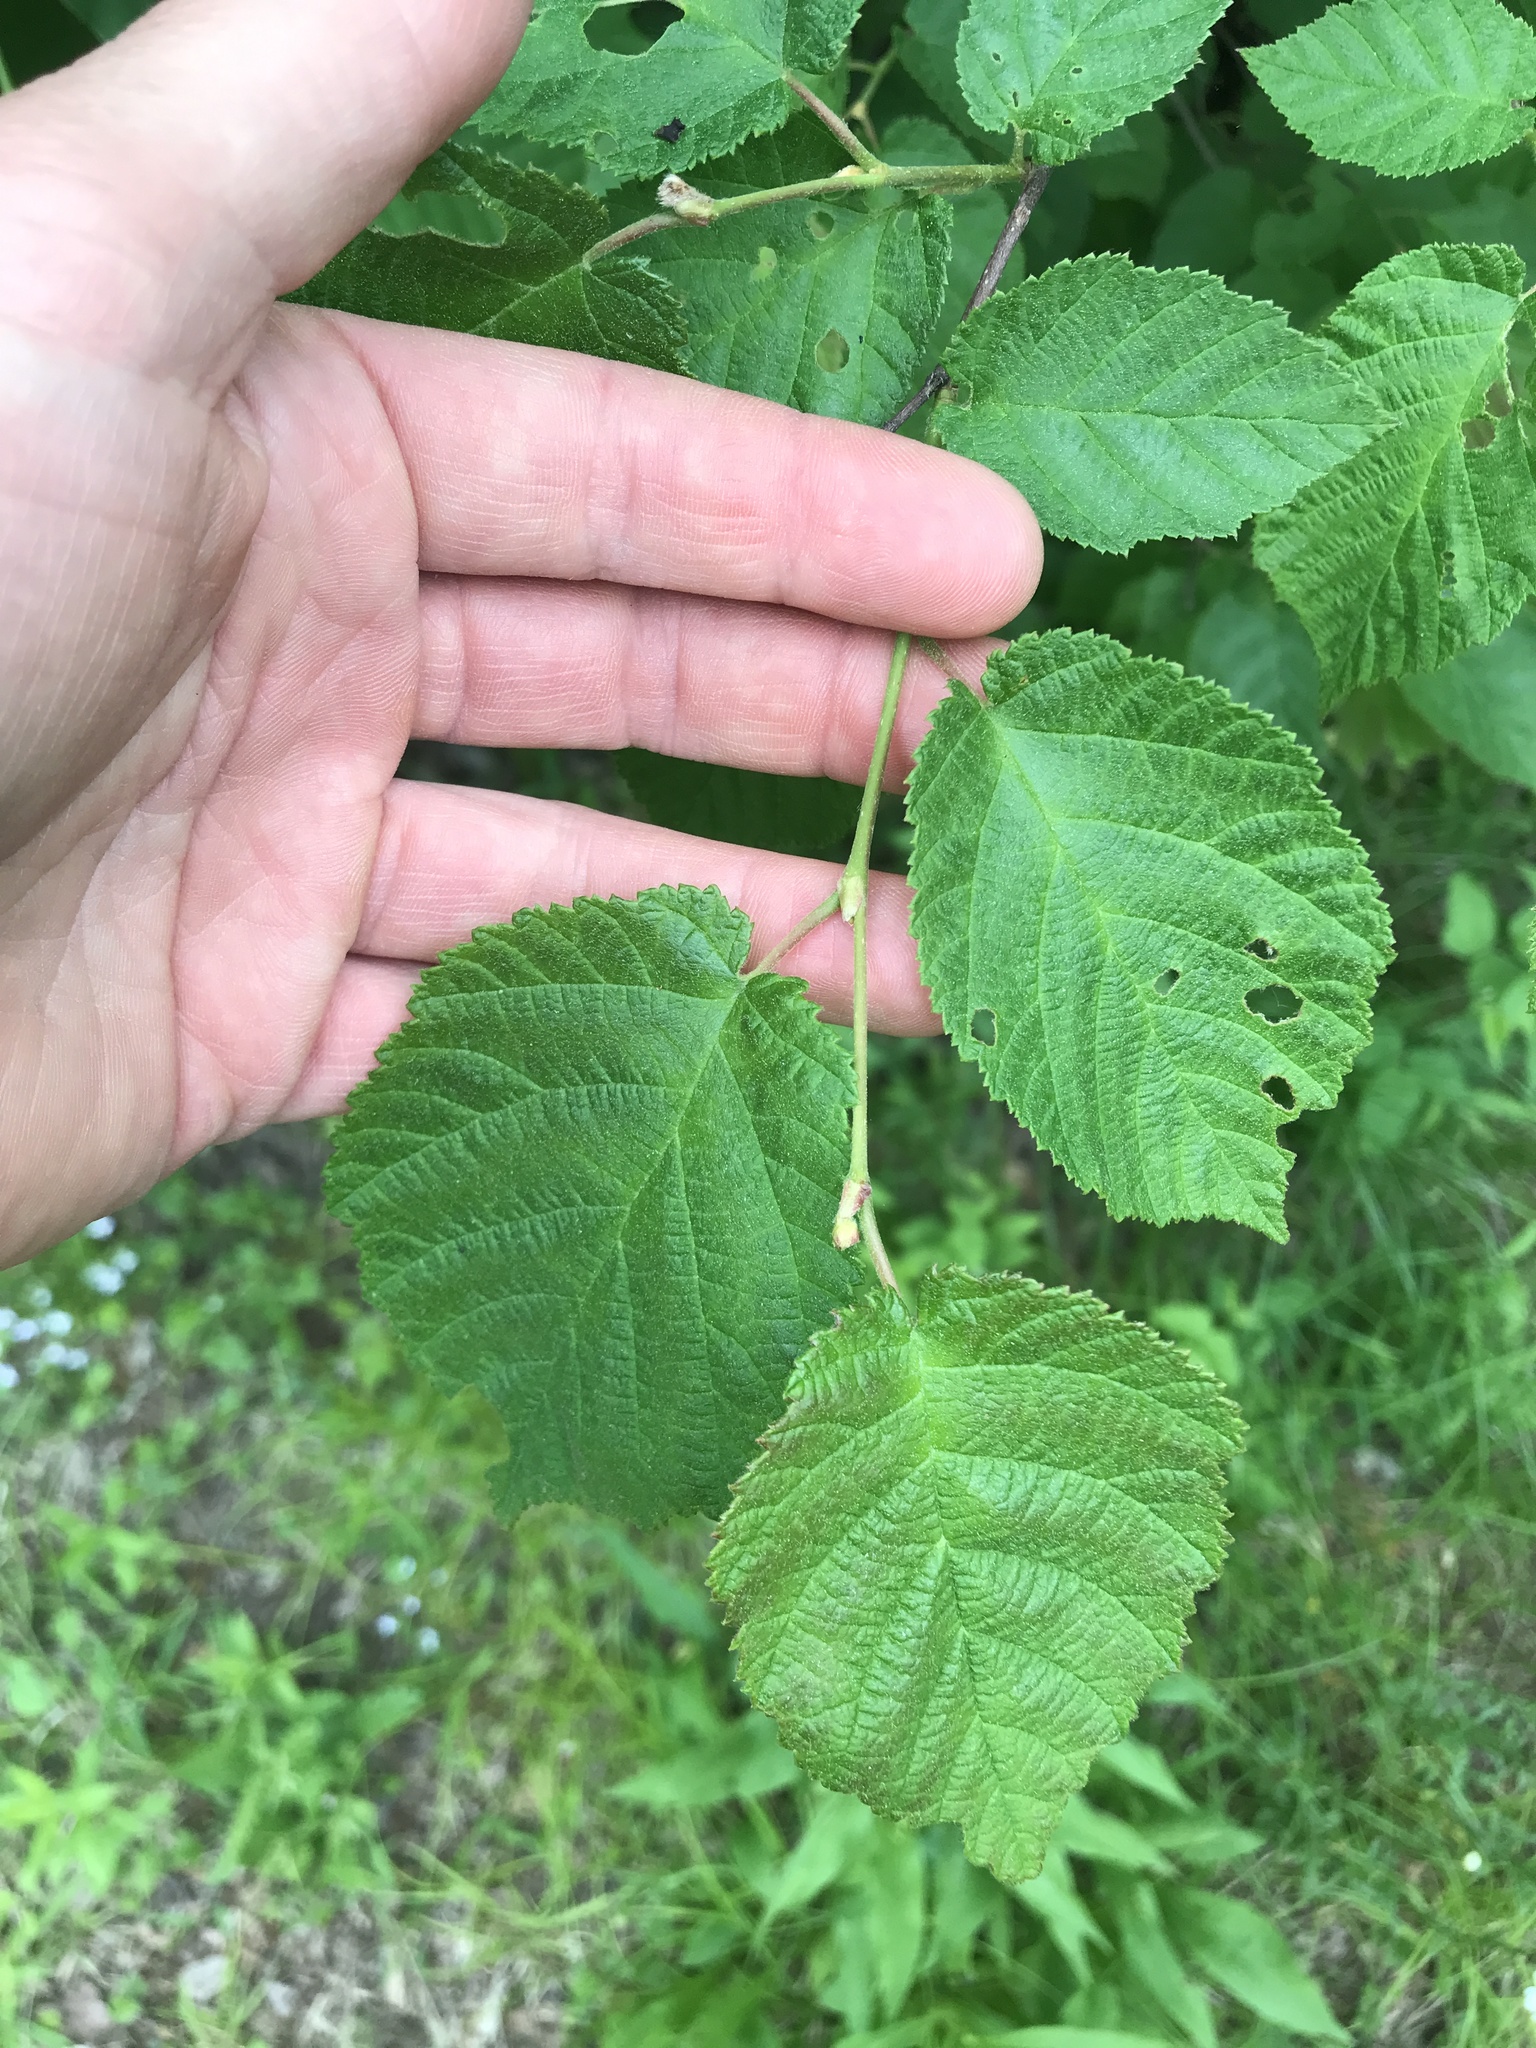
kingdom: Plantae
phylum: Tracheophyta
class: Magnoliopsida
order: Fagales
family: Betulaceae
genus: Corylus
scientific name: Corylus cornuta
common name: Beaked hazel
